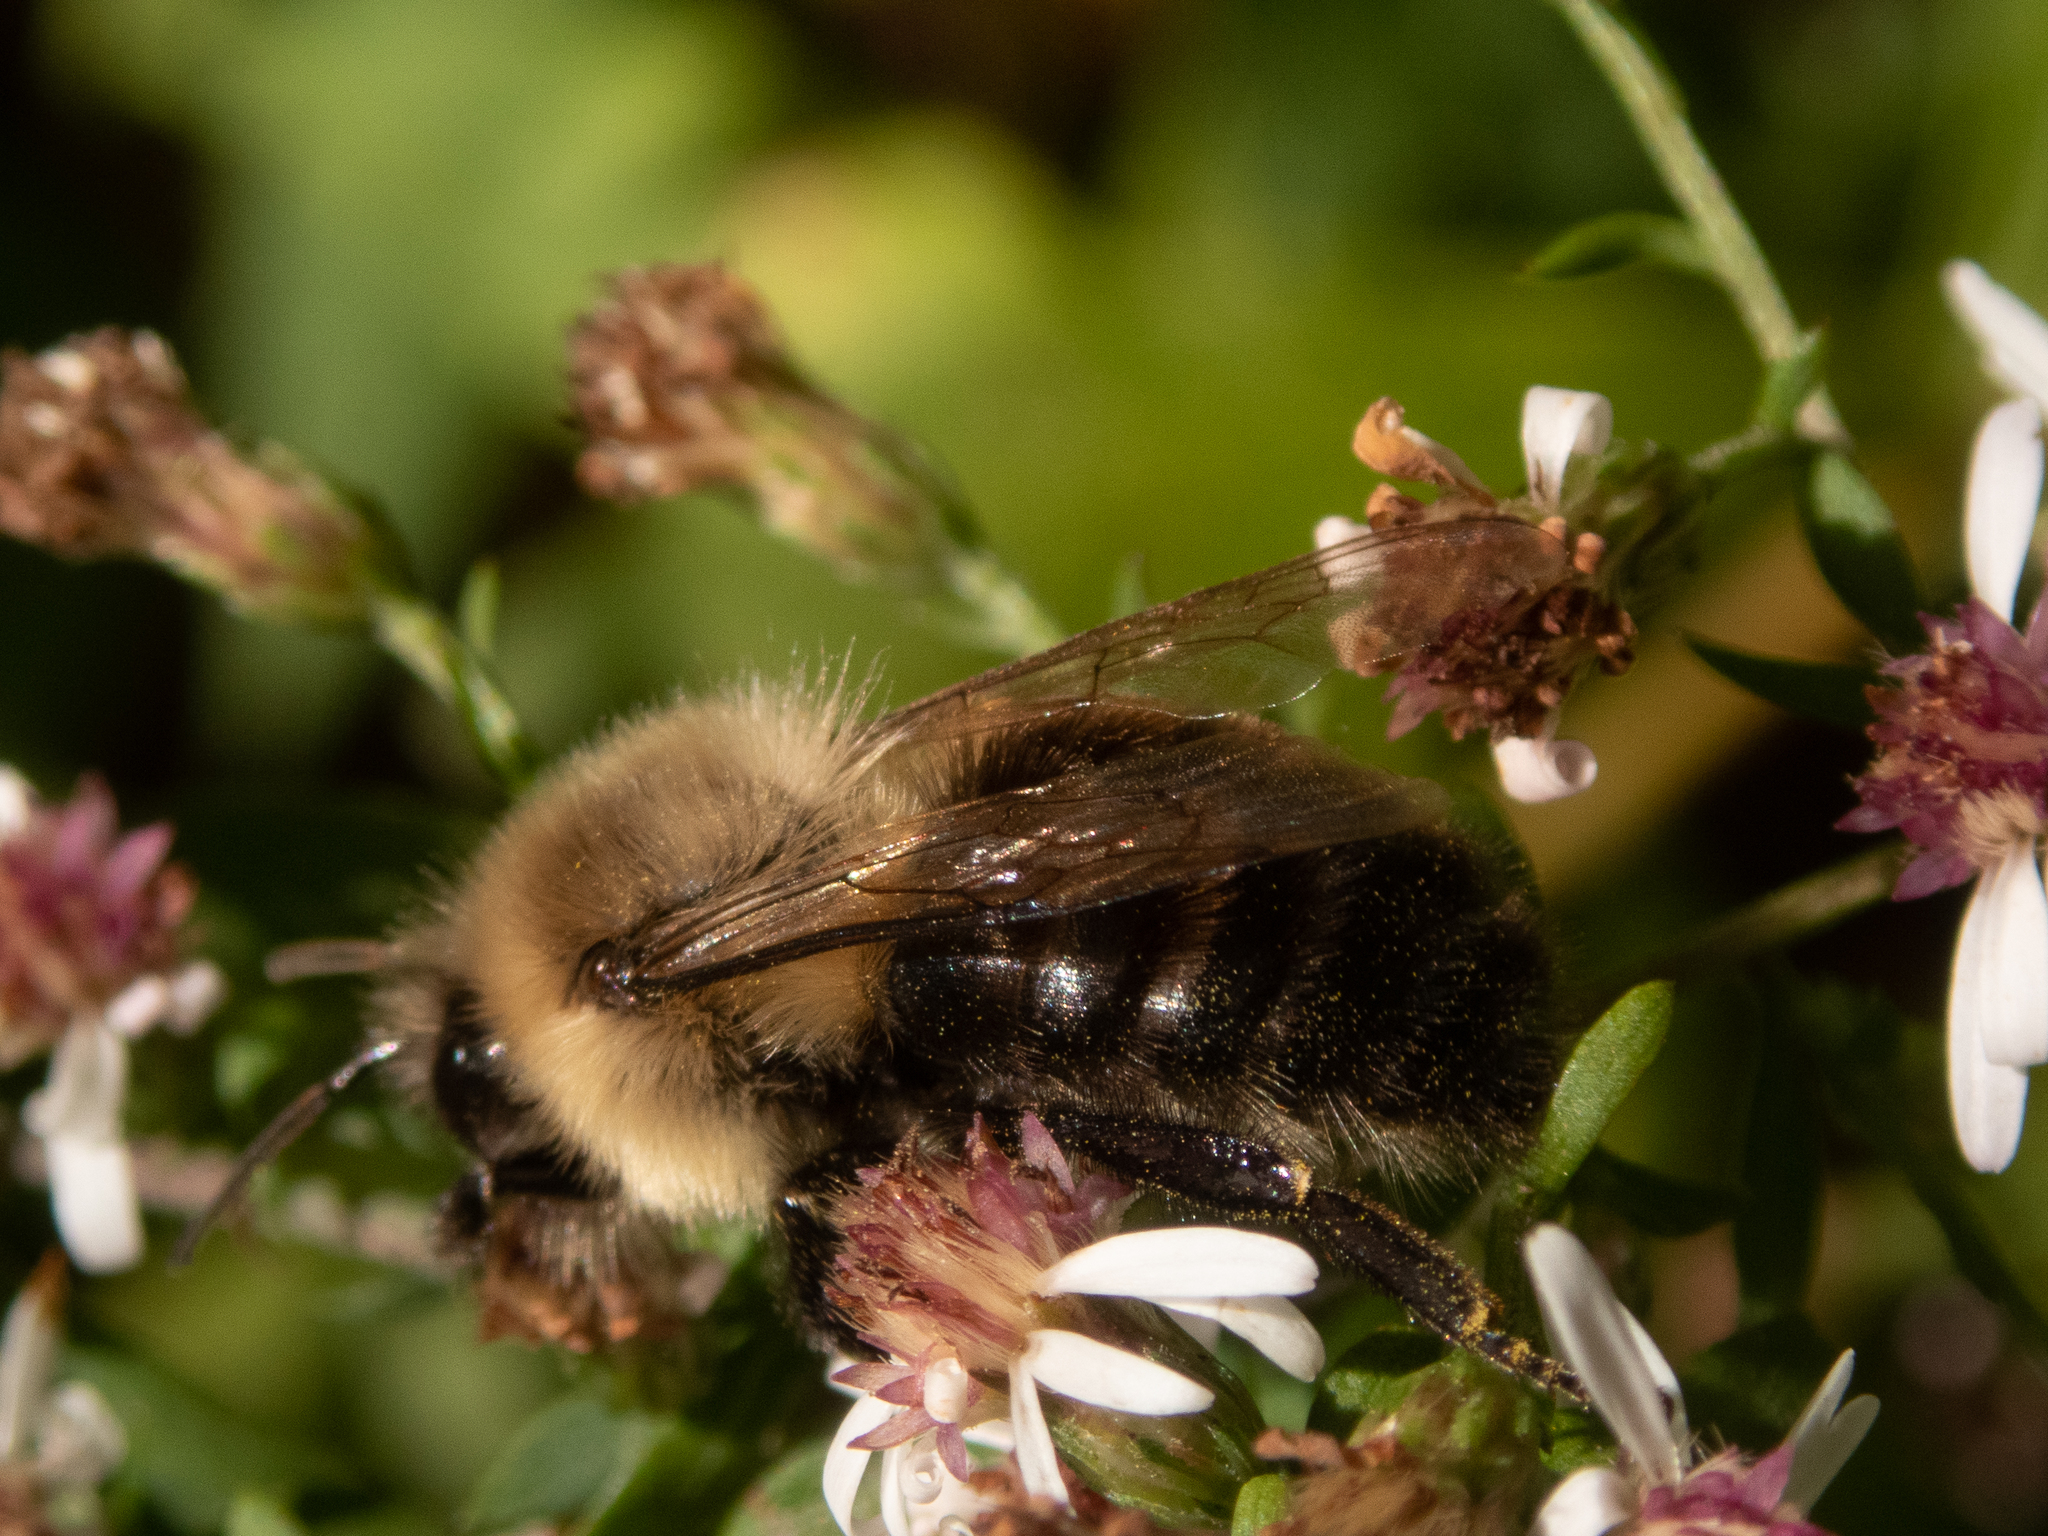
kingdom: Animalia
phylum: Arthropoda
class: Insecta
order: Hymenoptera
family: Apidae
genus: Bombus
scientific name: Bombus impatiens
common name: Common eastern bumble bee
